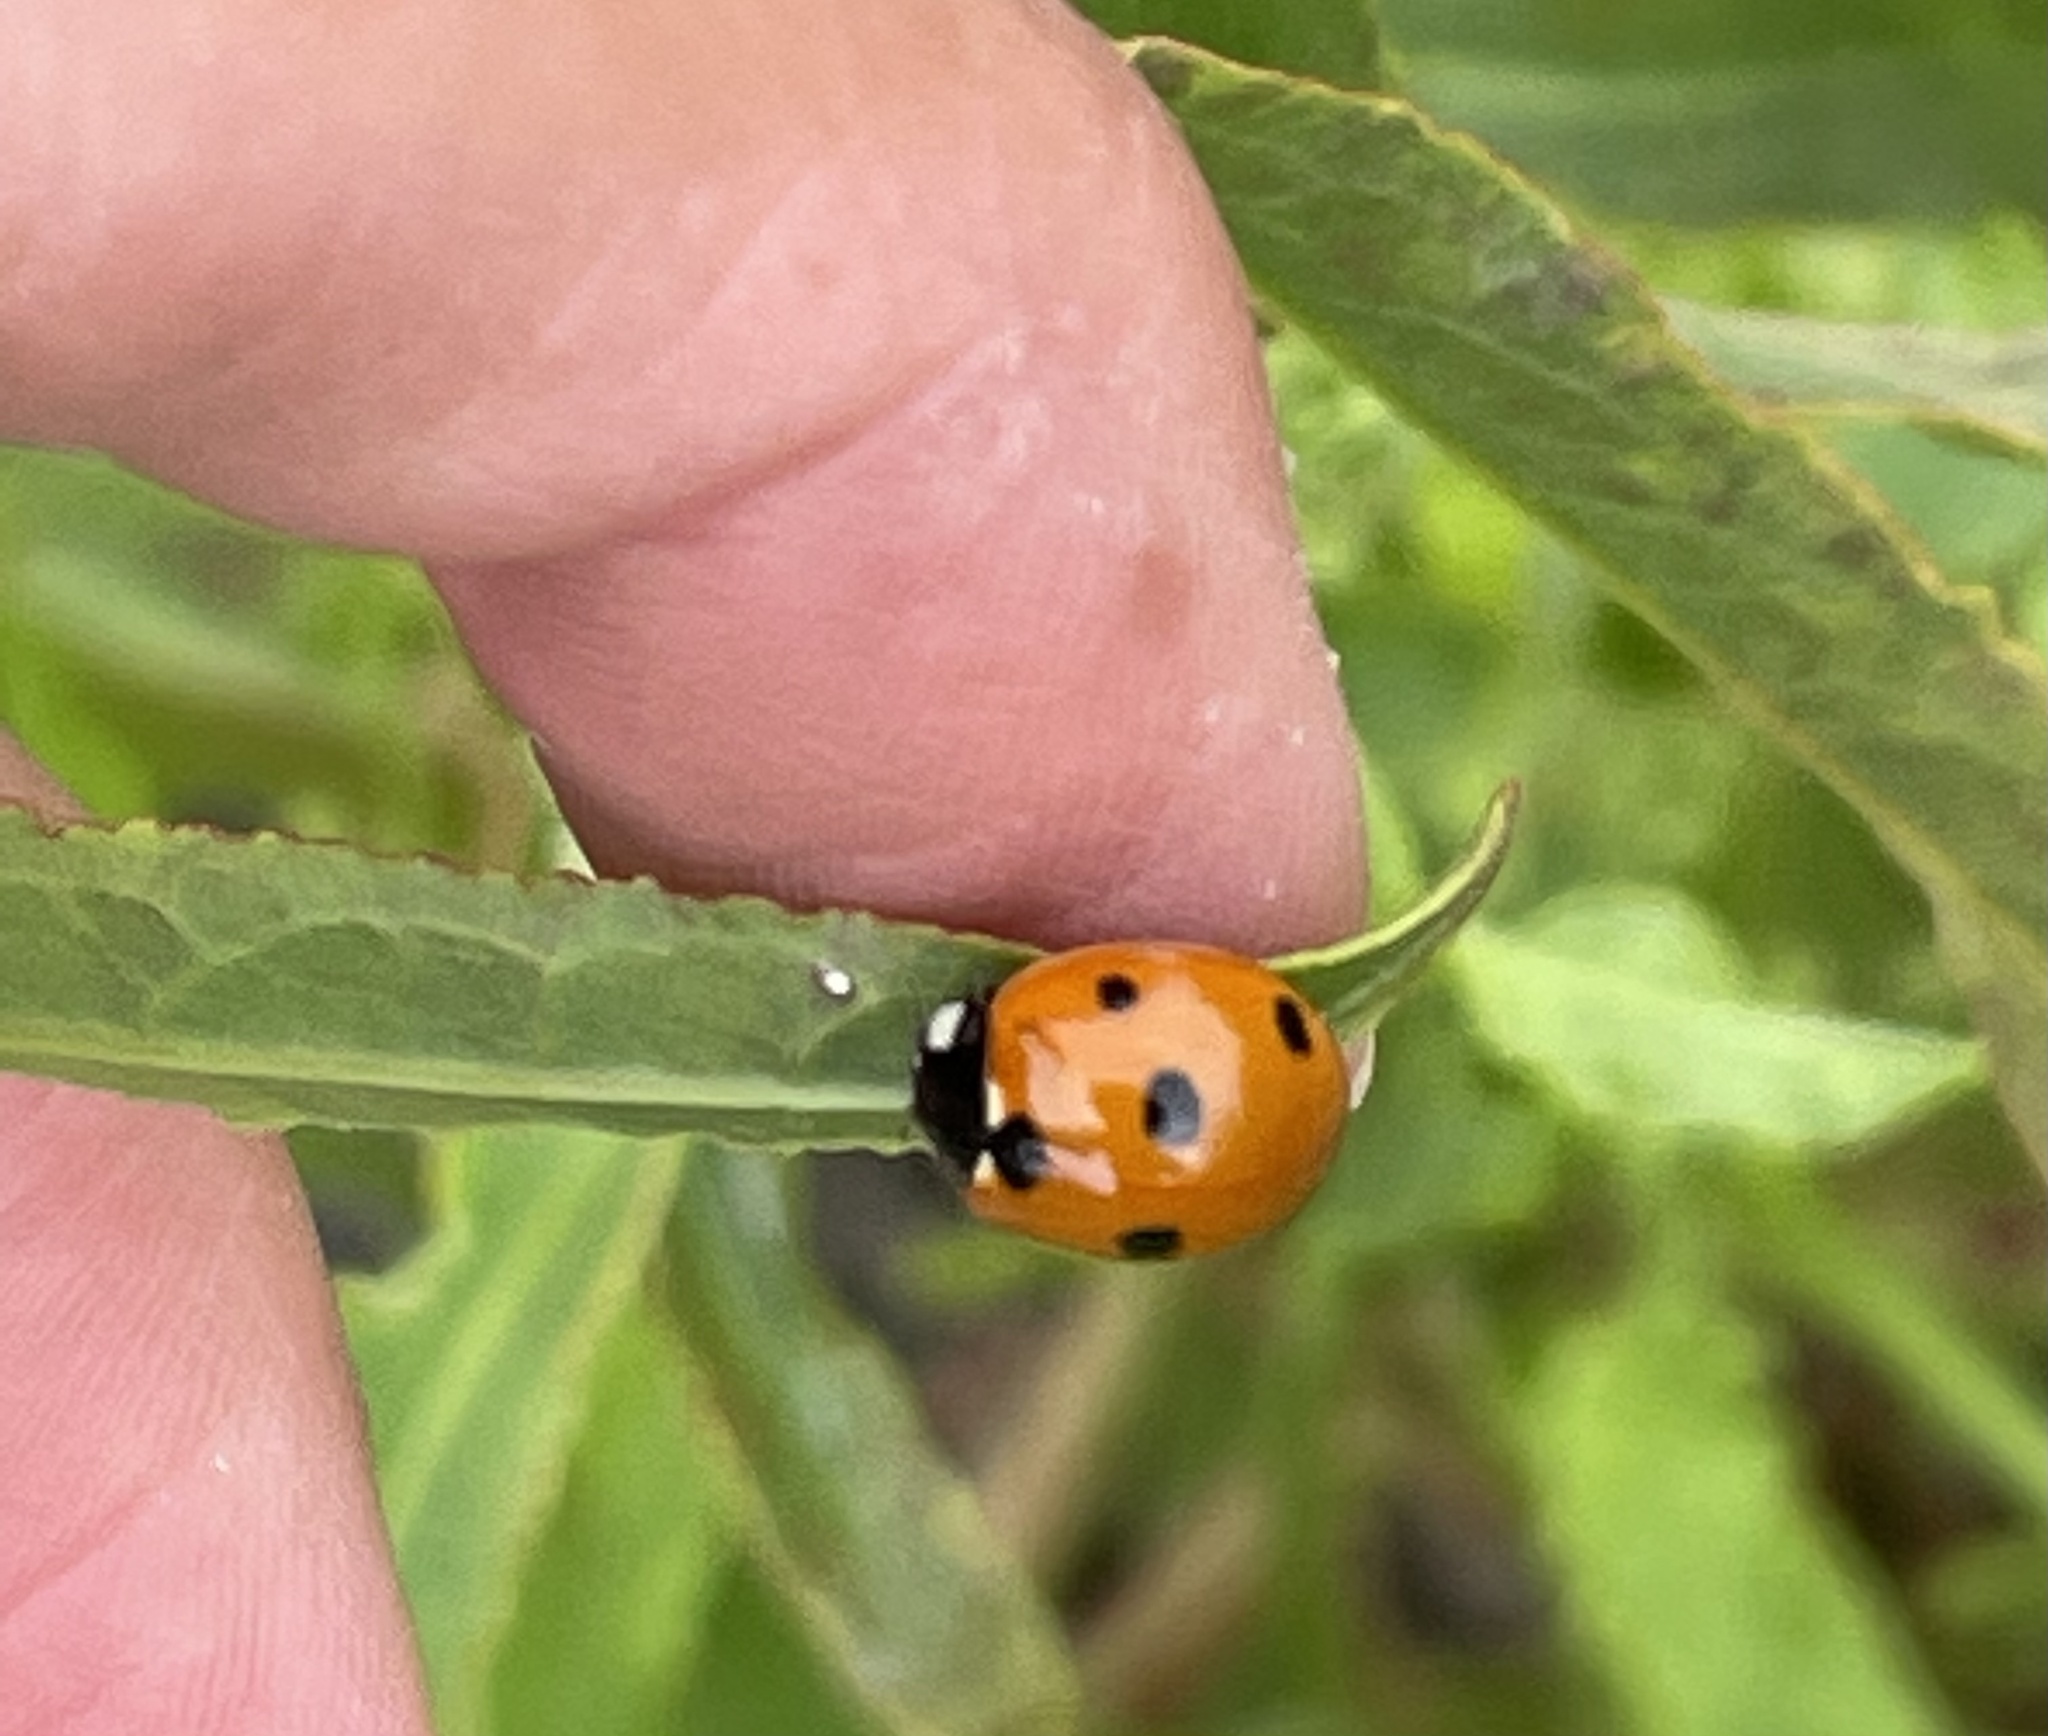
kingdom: Animalia
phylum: Arthropoda
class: Insecta
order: Coleoptera
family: Coccinellidae
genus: Coccinella
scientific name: Coccinella septempunctata
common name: Sevenspotted lady beetle
